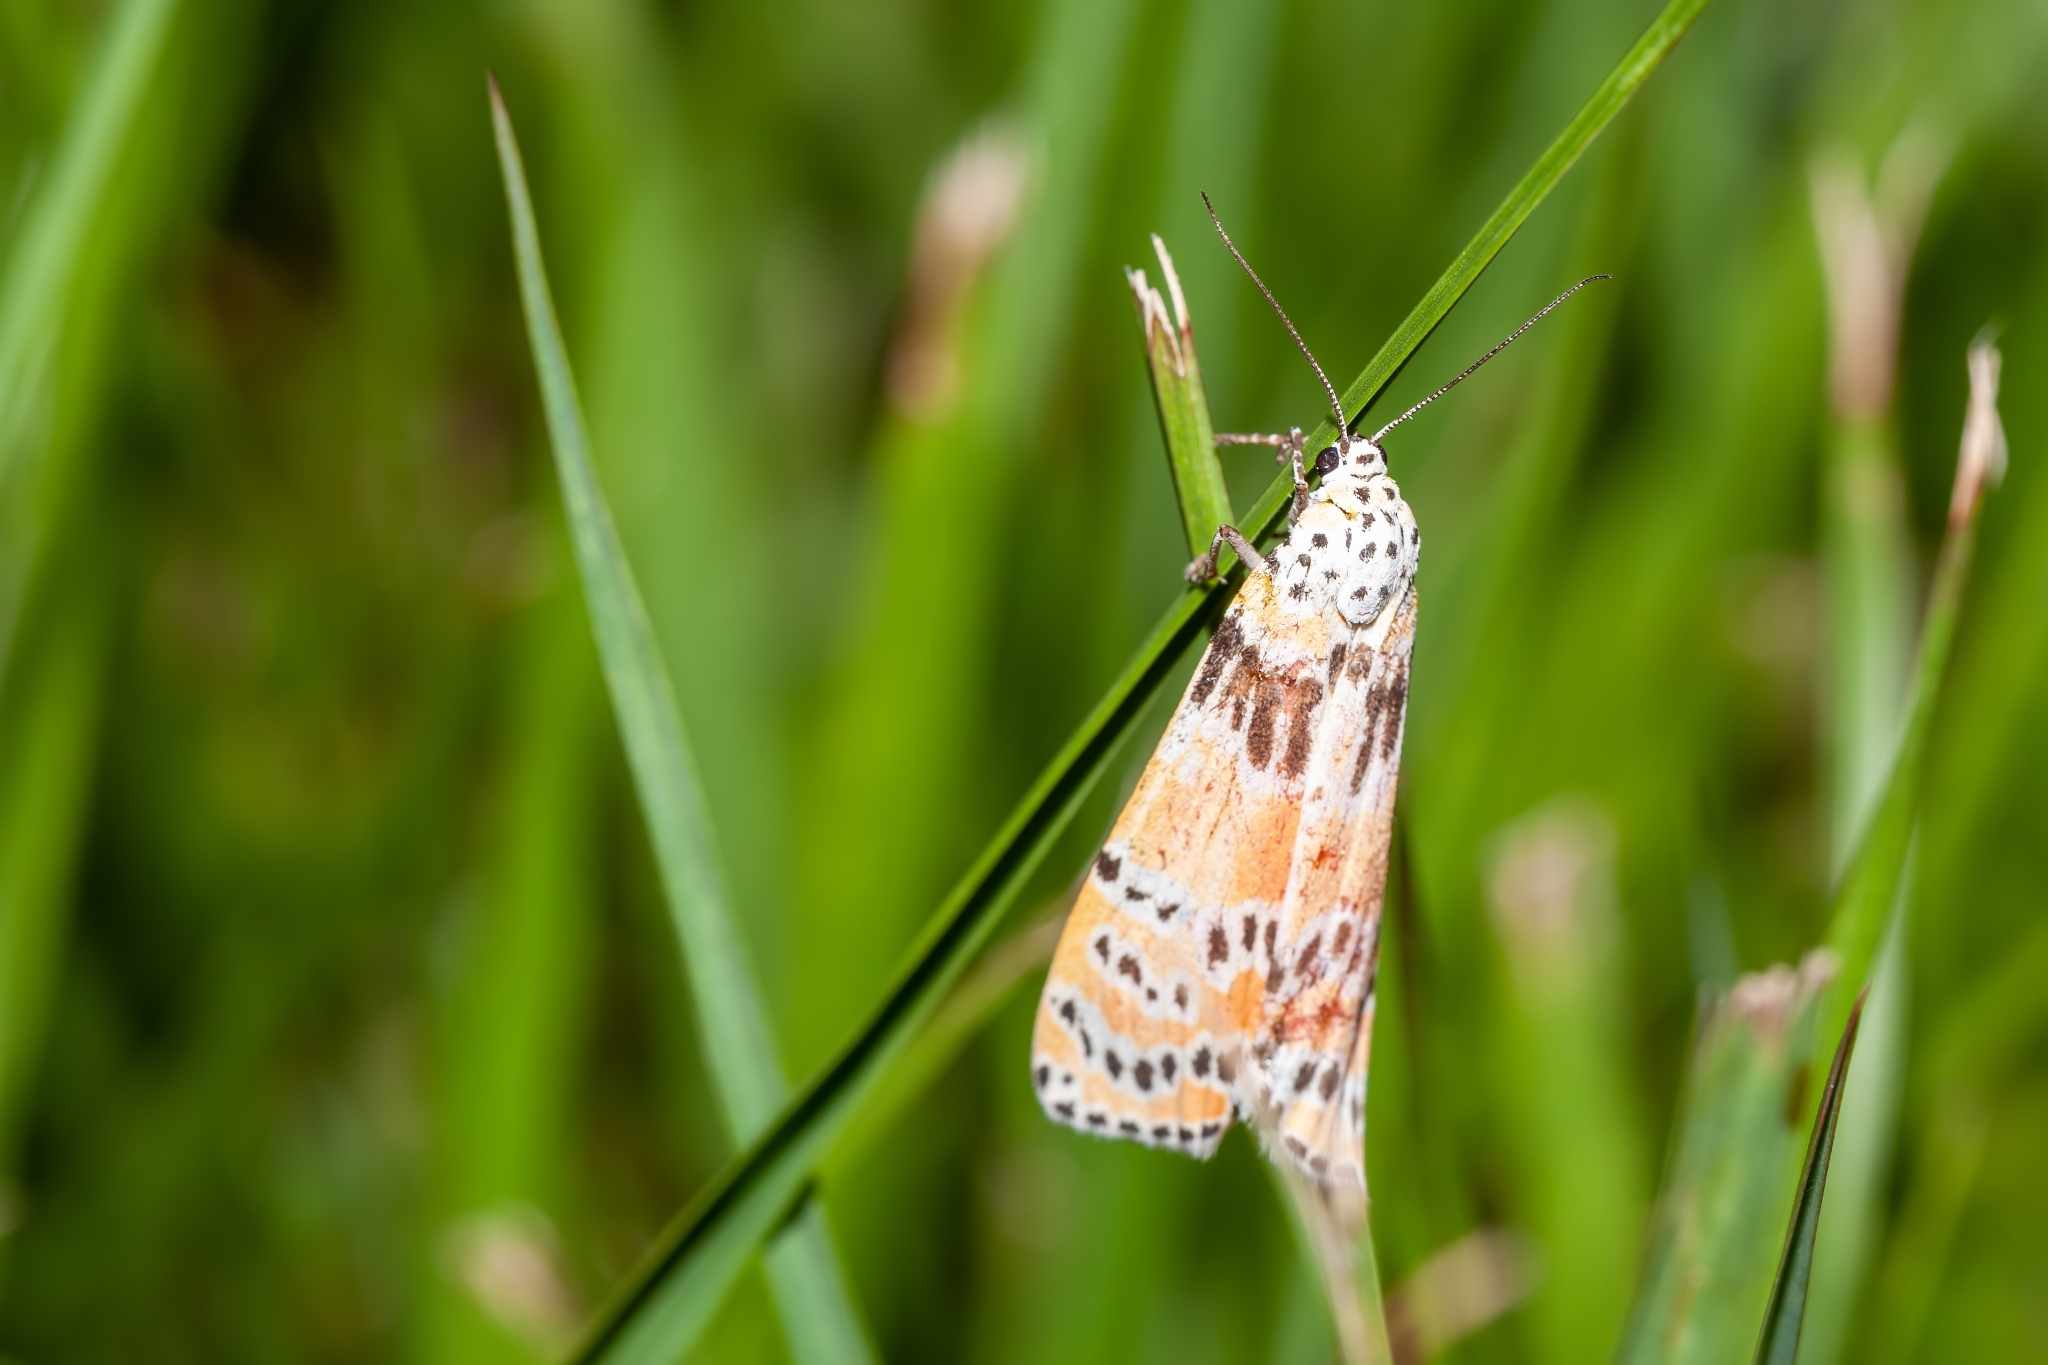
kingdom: Animalia
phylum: Arthropoda
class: Insecta
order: Lepidoptera
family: Erebidae
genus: Utetheisa
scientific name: Utetheisa ornatrix
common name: Beautiful utetheisa
